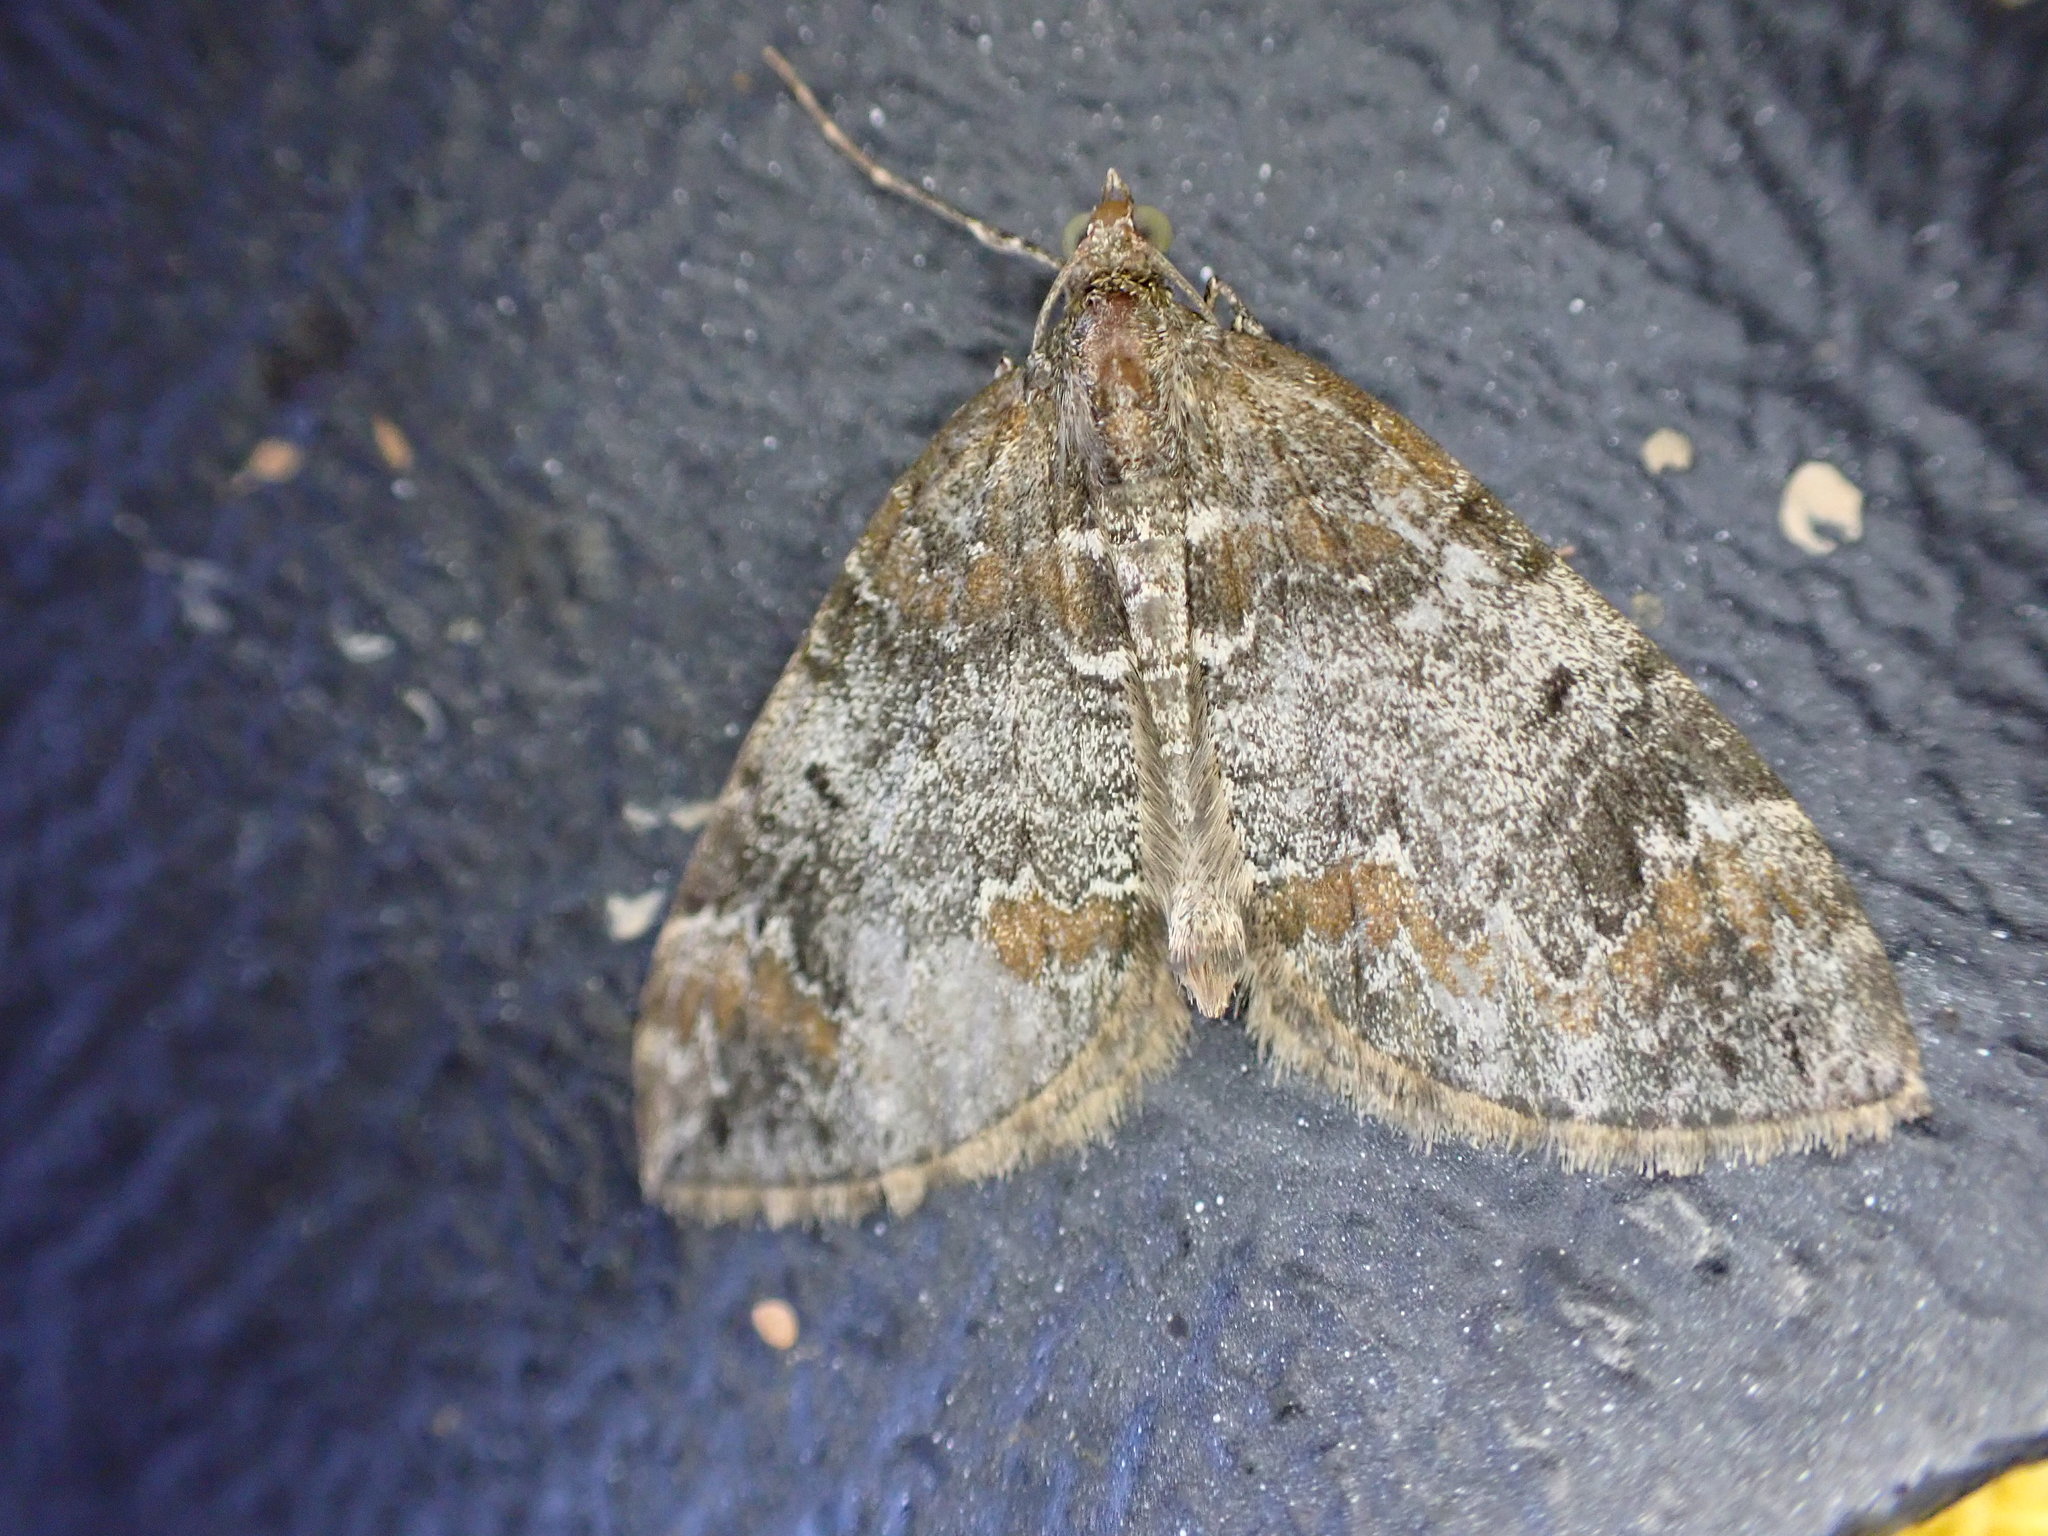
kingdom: Animalia
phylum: Arthropoda
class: Insecta
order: Lepidoptera
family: Geometridae
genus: Dysstroma
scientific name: Dysstroma truncata
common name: Common marbled carpet
